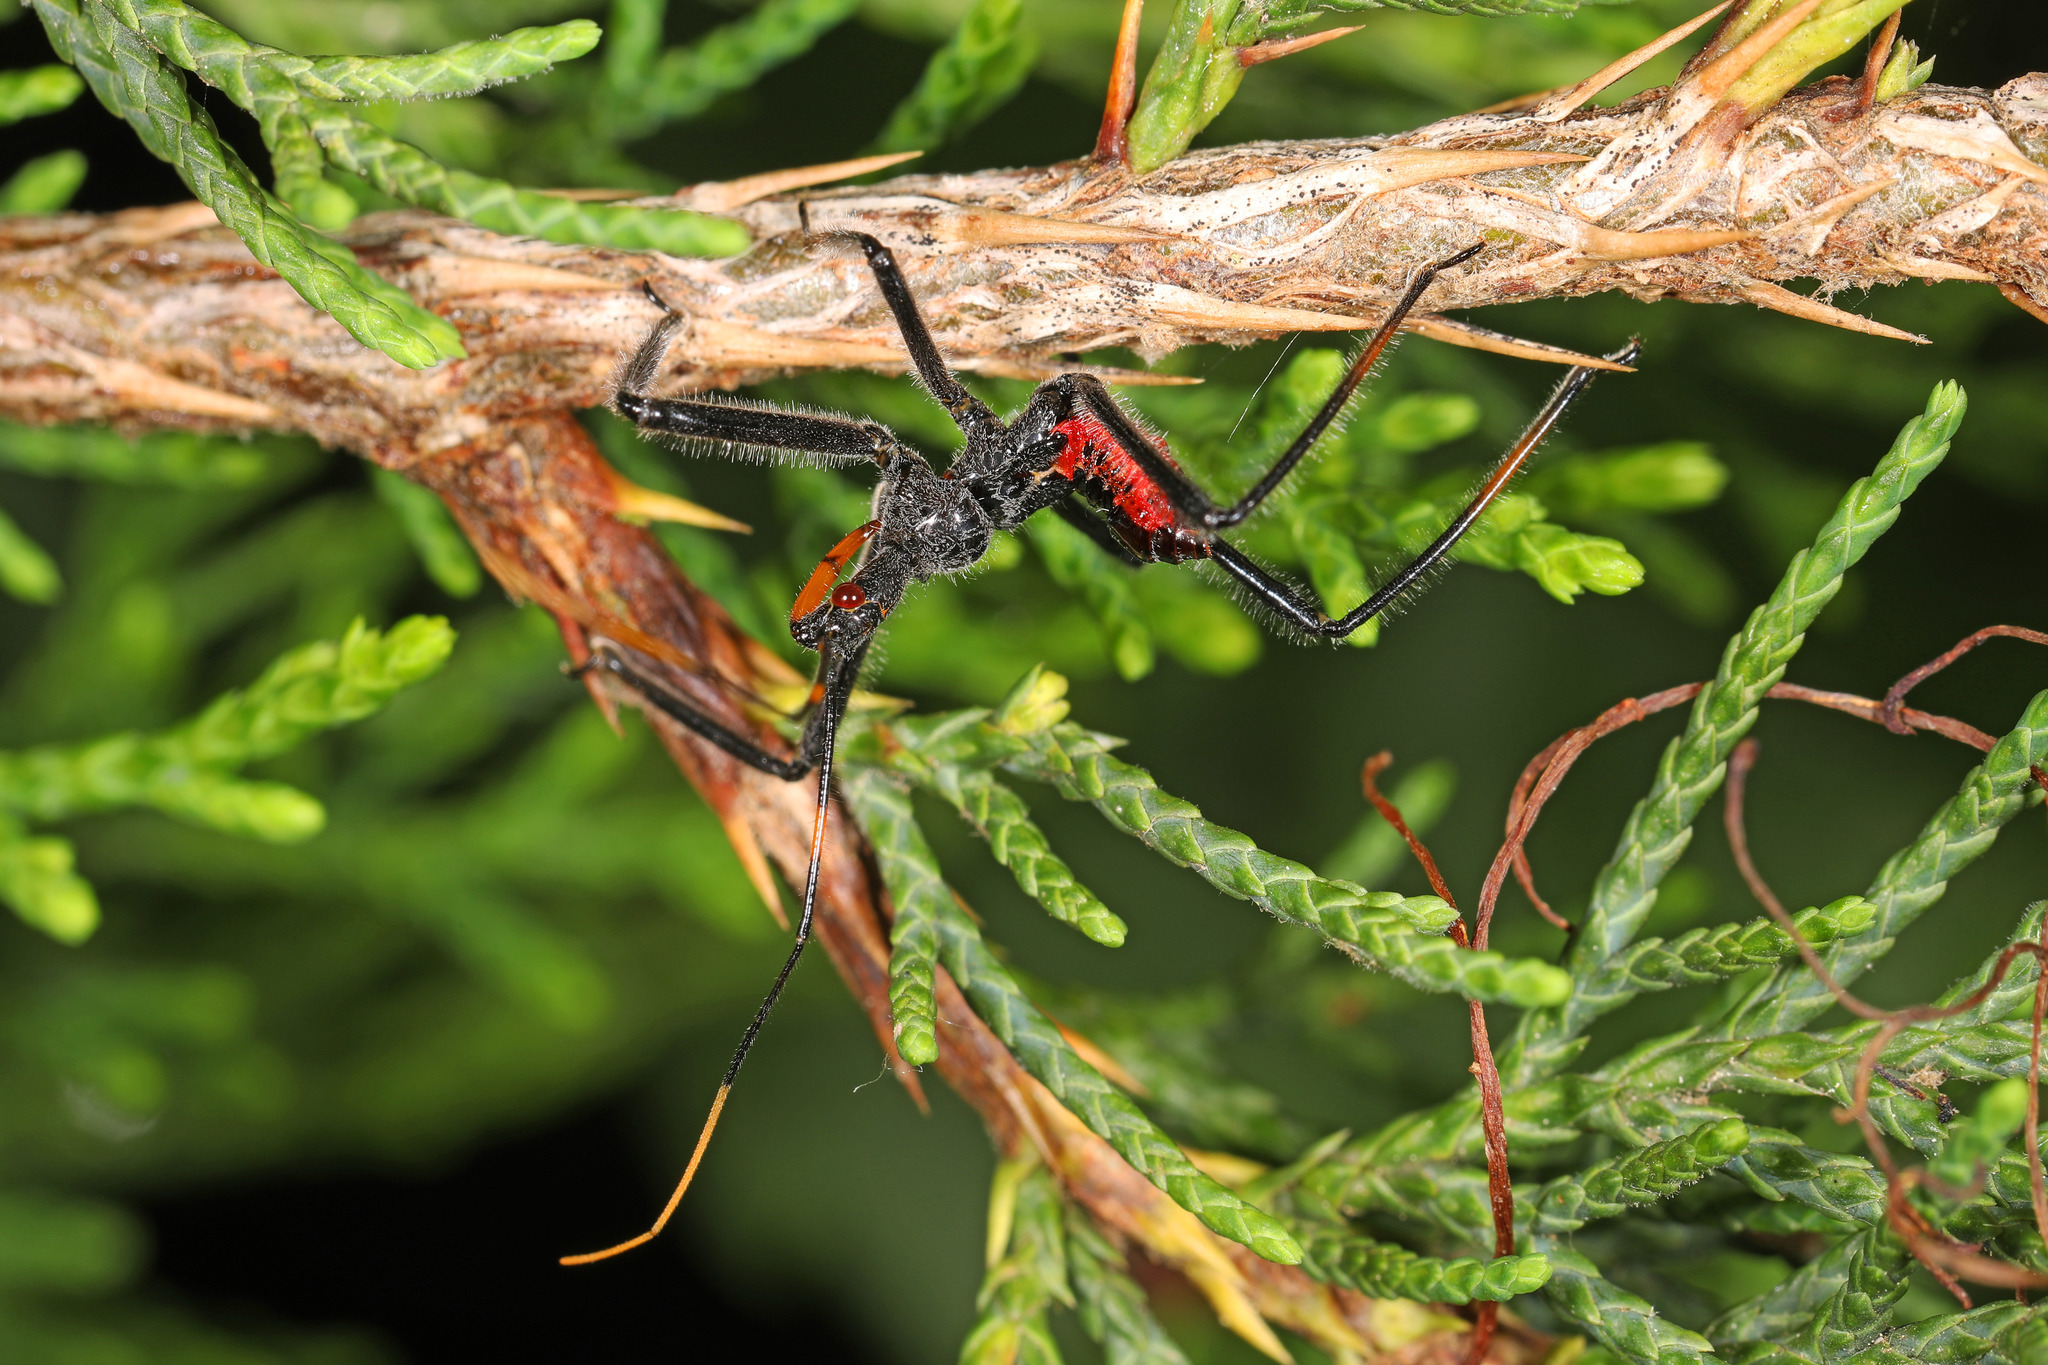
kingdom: Animalia
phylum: Arthropoda
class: Insecta
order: Hemiptera
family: Reduviidae
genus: Arilus
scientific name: Arilus cristatus
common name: North american wheel bug
